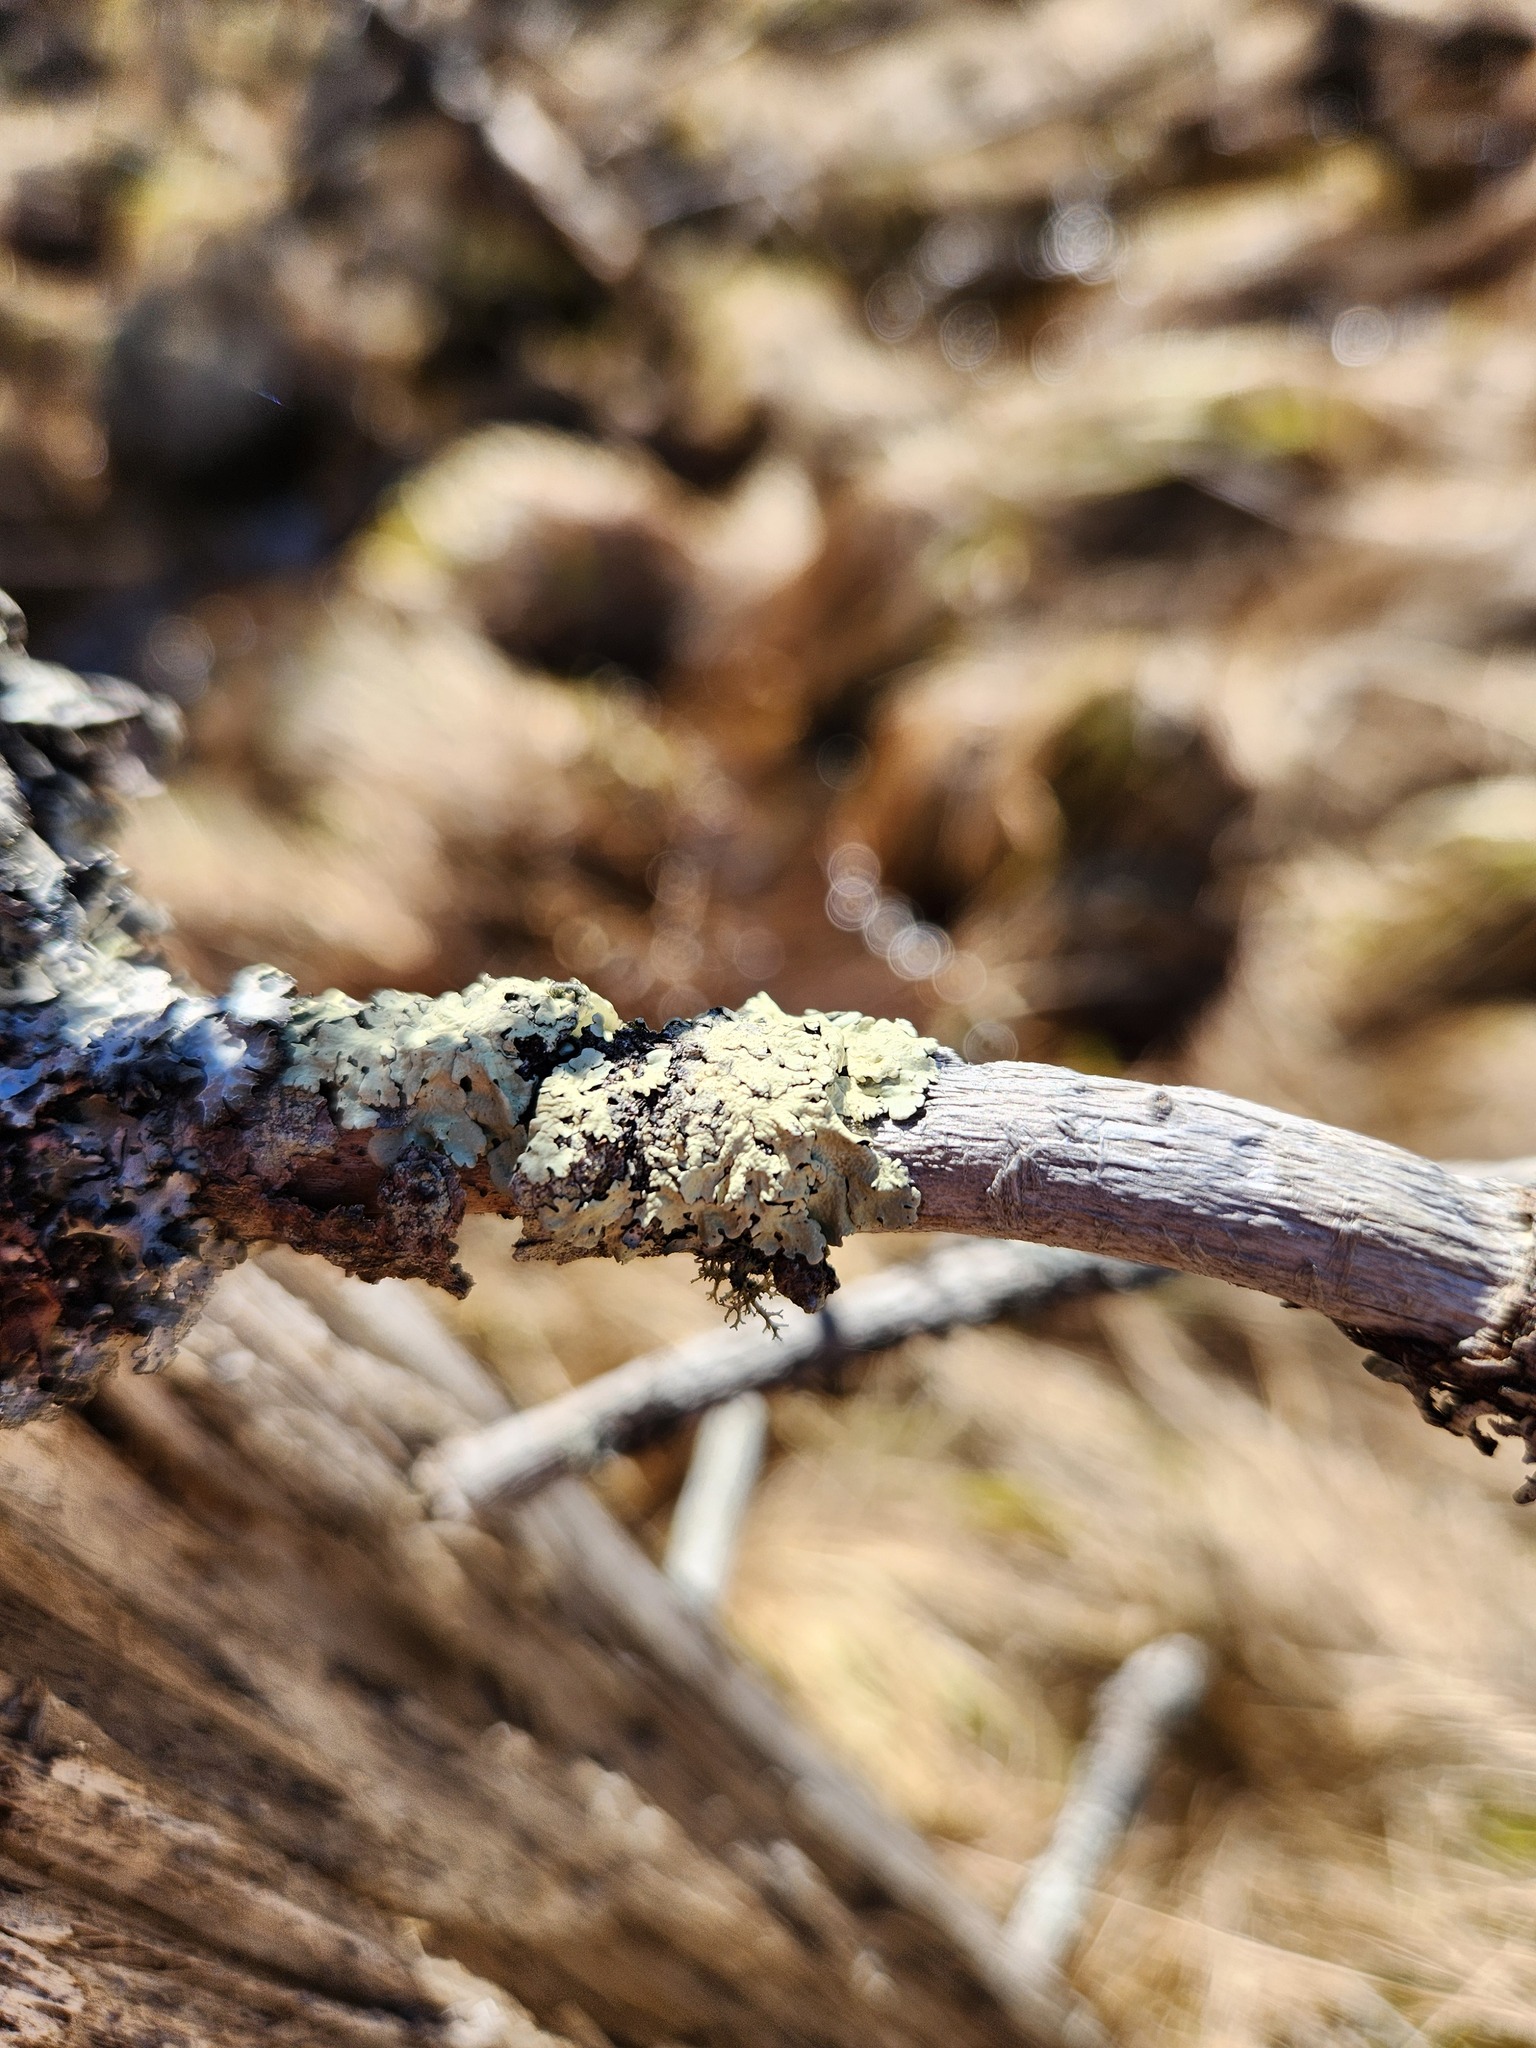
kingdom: Fungi
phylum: Ascomycota
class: Lecanoromycetes
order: Lecanorales
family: Parmeliaceae
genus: Flavoparmelia
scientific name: Flavoparmelia caperata
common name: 40-mile per hour lichen
